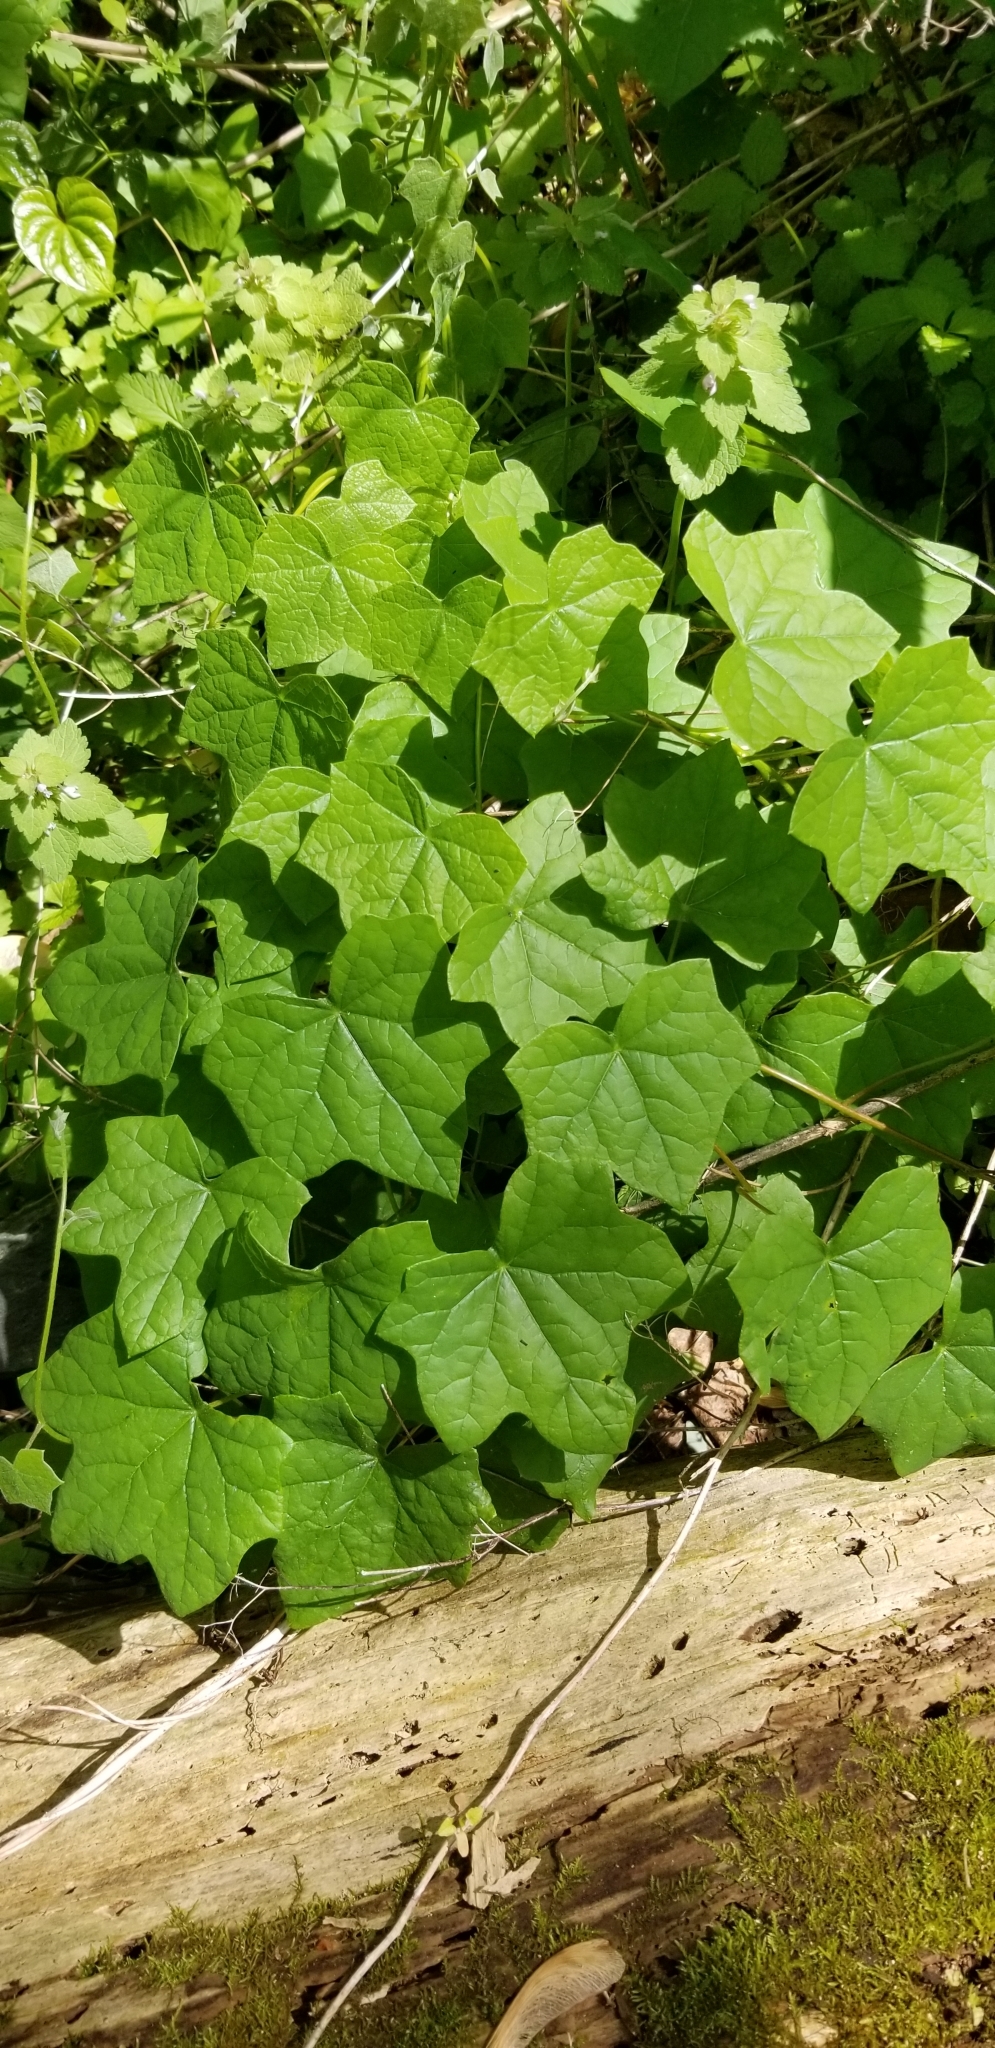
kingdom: Plantae
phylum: Tracheophyta
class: Magnoliopsida
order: Ranunculales
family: Menispermaceae
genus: Menispermum
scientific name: Menispermum canadense
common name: Moonseed
